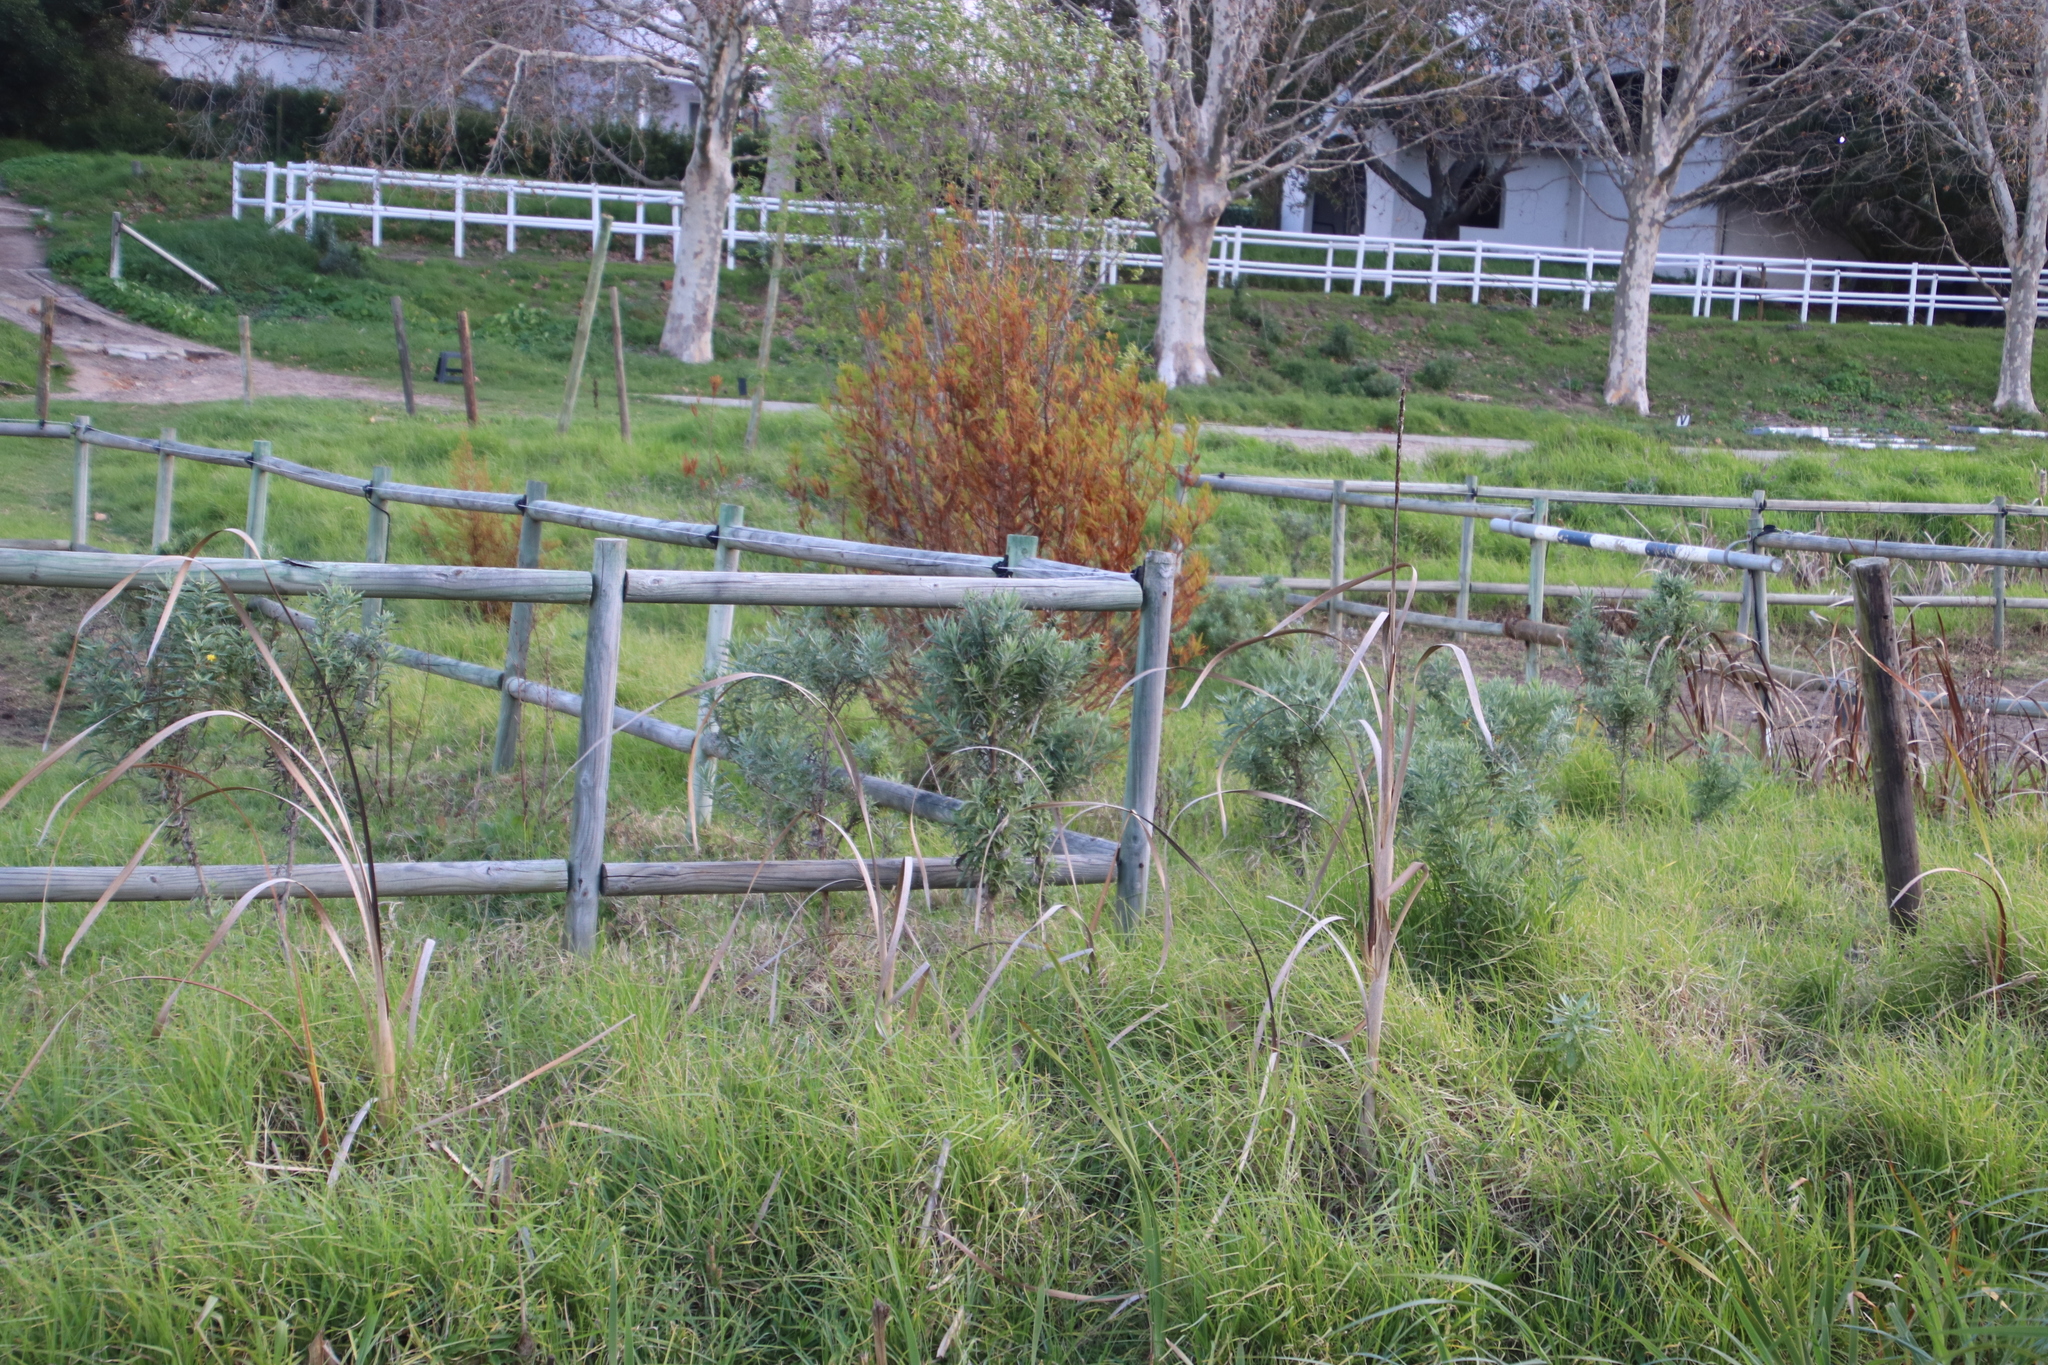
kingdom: Plantae
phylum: Tracheophyta
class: Magnoliopsida
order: Asterales
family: Asteraceae
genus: Senecio
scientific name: Senecio pterophorus
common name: Shoddy ragwort
